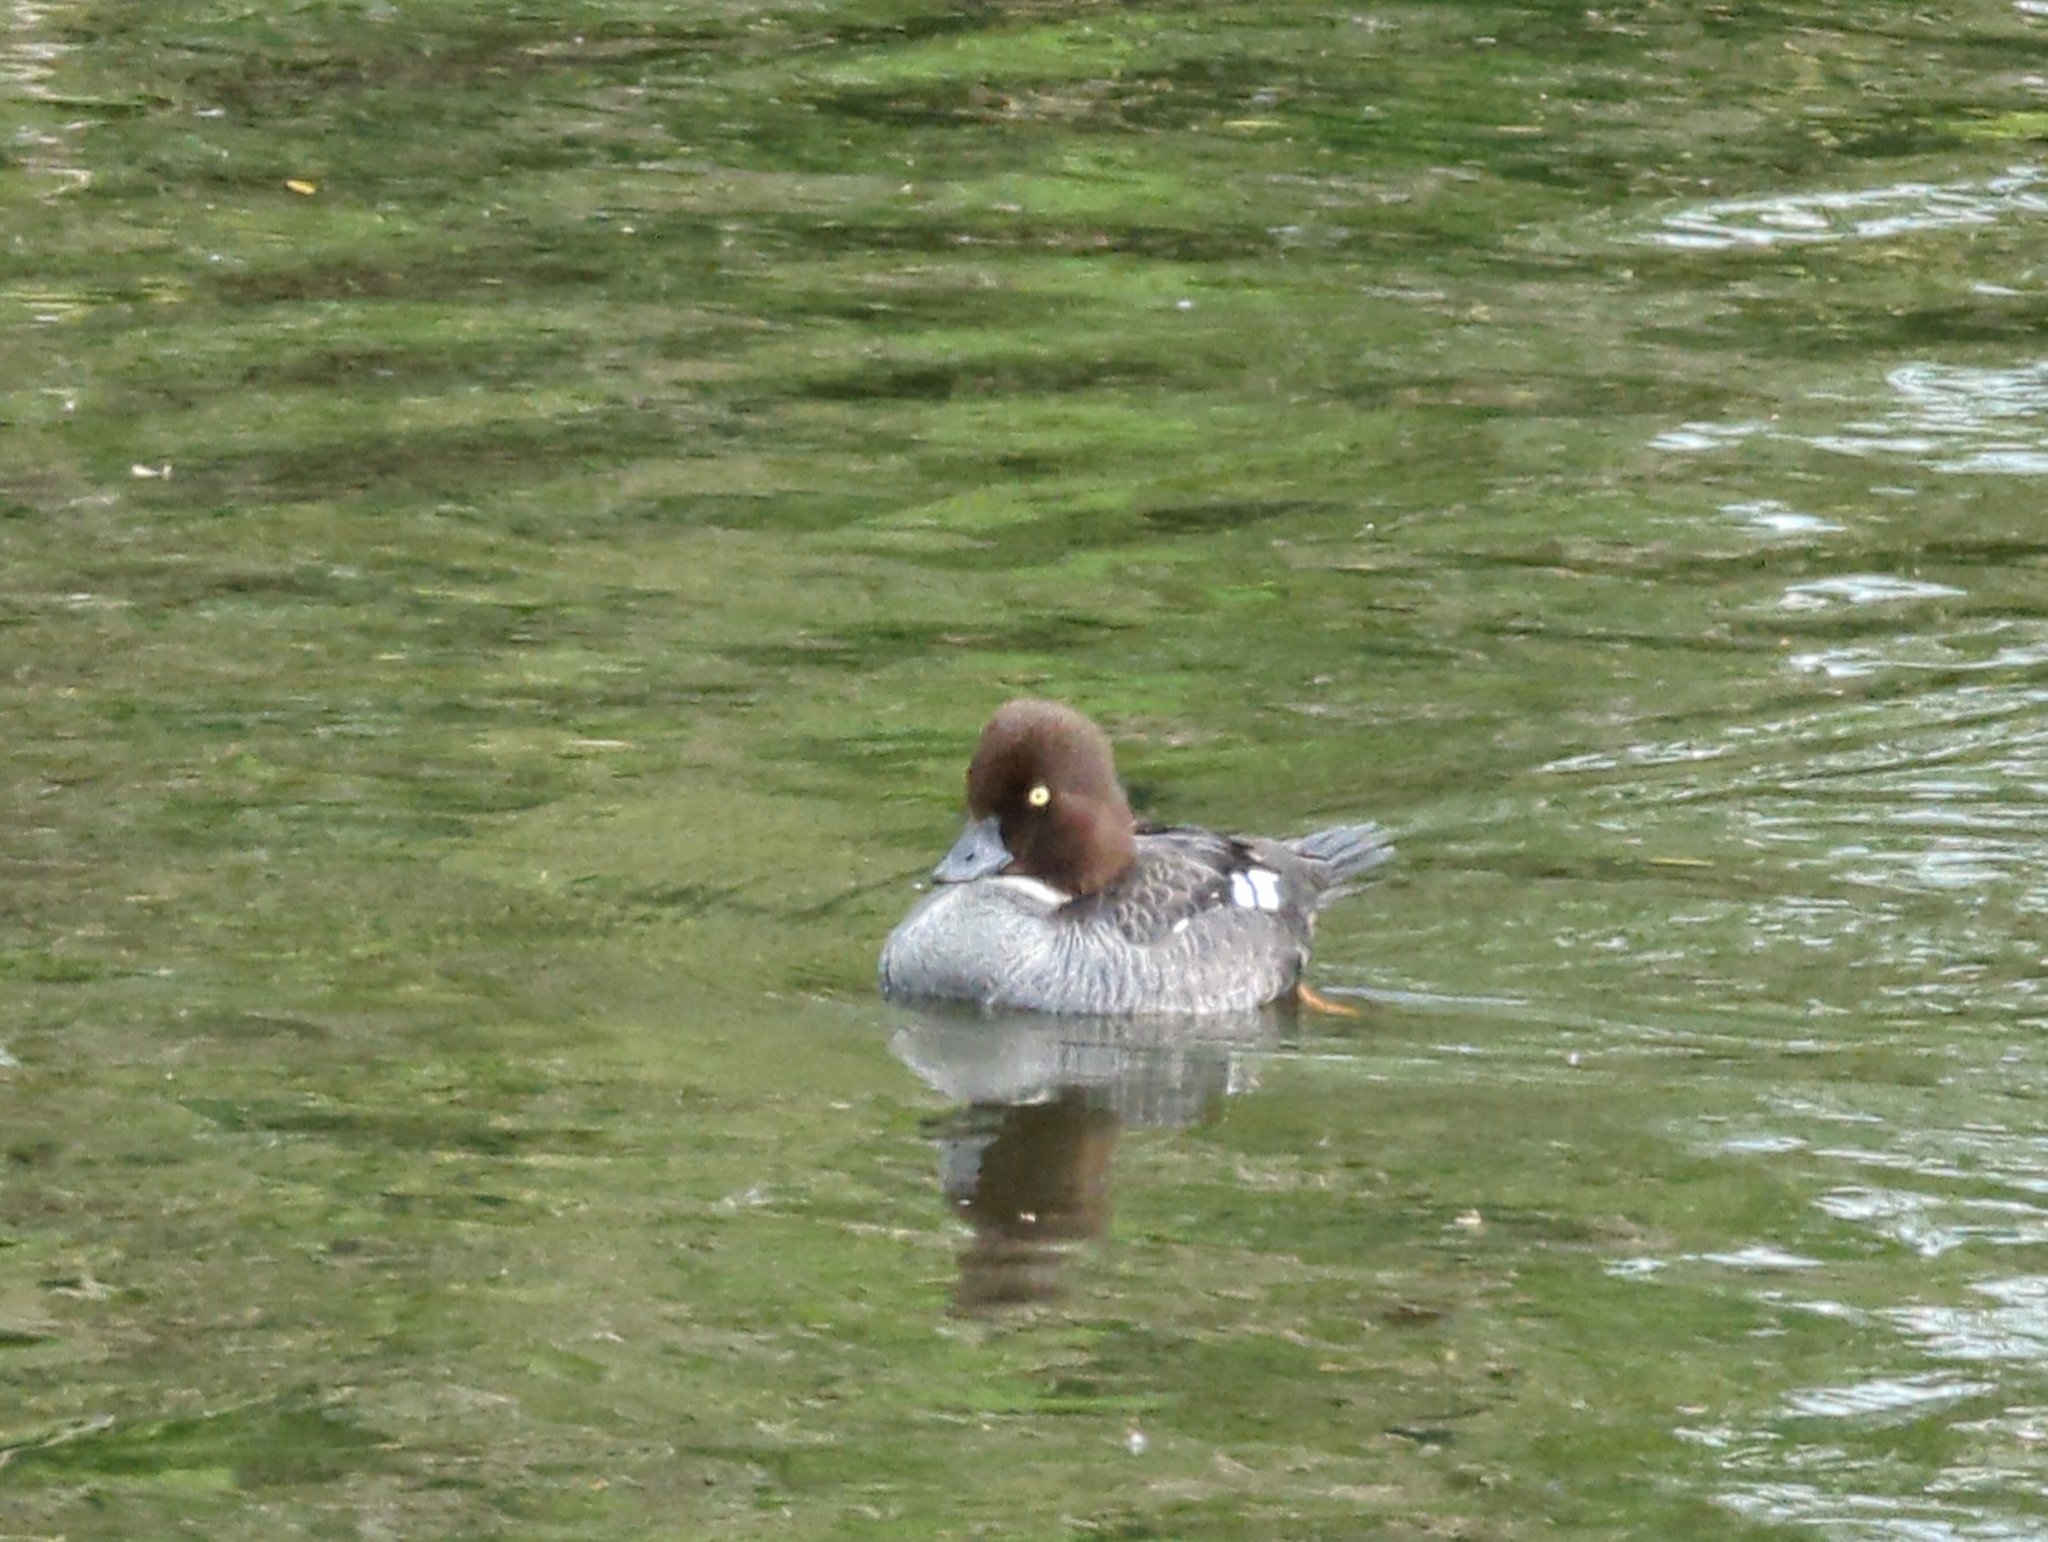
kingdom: Animalia
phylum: Chordata
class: Aves
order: Anseriformes
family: Anatidae
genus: Bucephala
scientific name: Bucephala clangula
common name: Common goldeneye
